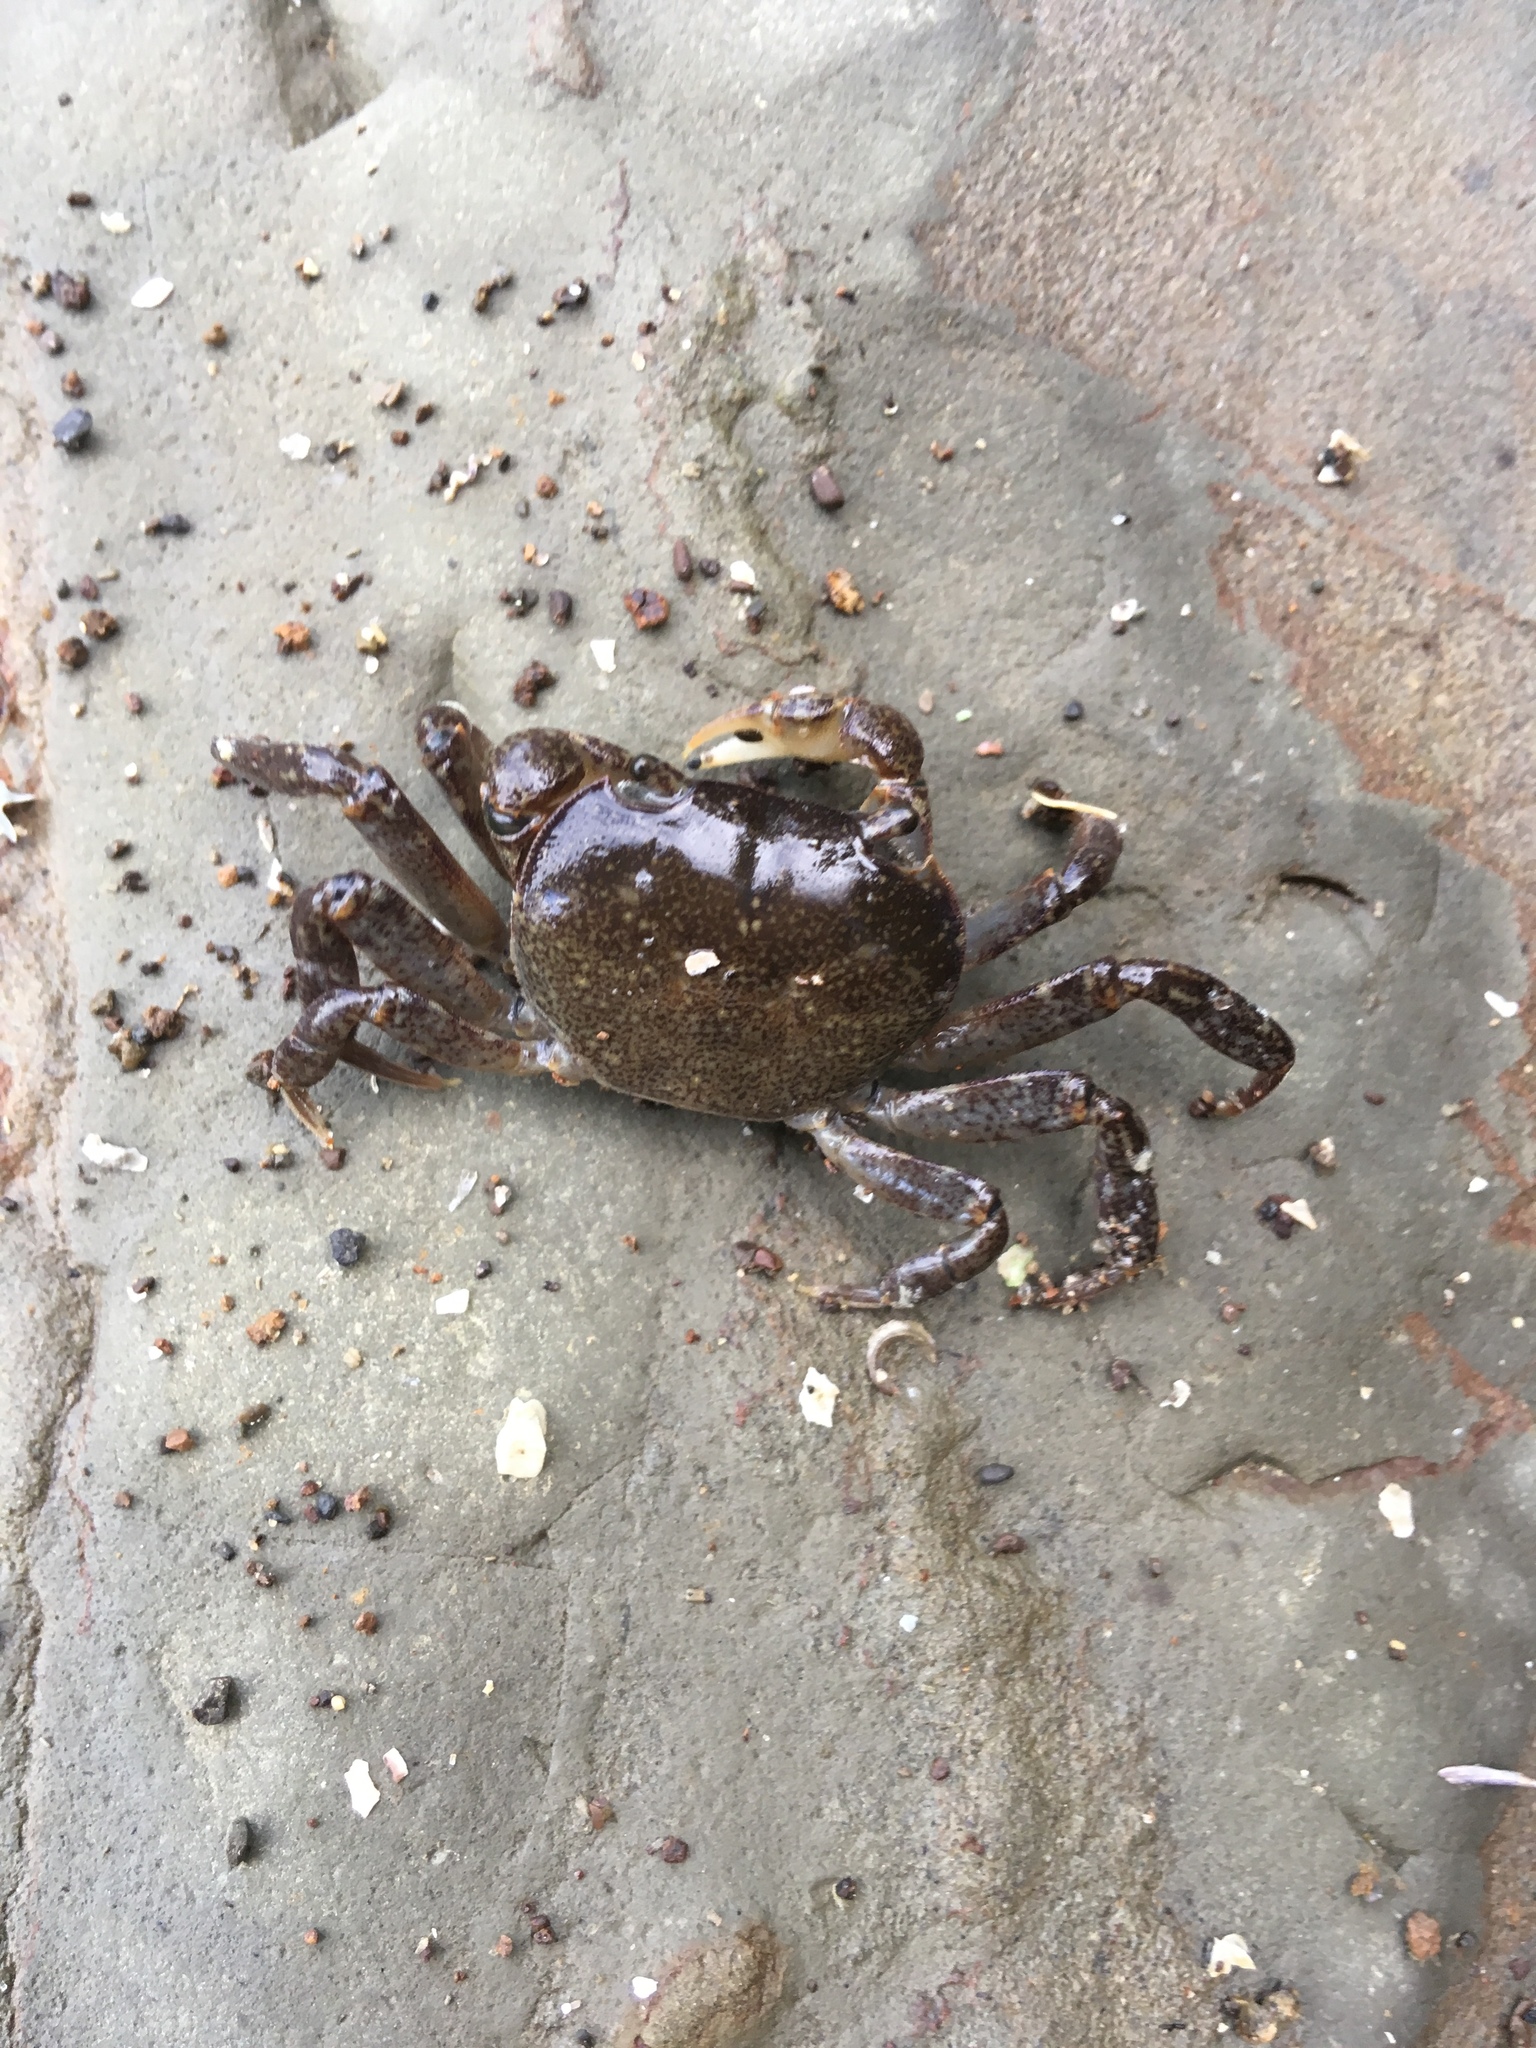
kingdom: Animalia
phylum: Arthropoda
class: Malacostraca
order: Decapoda
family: Varunidae
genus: Cyclograpsus
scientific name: Cyclograpsus lavauxi
